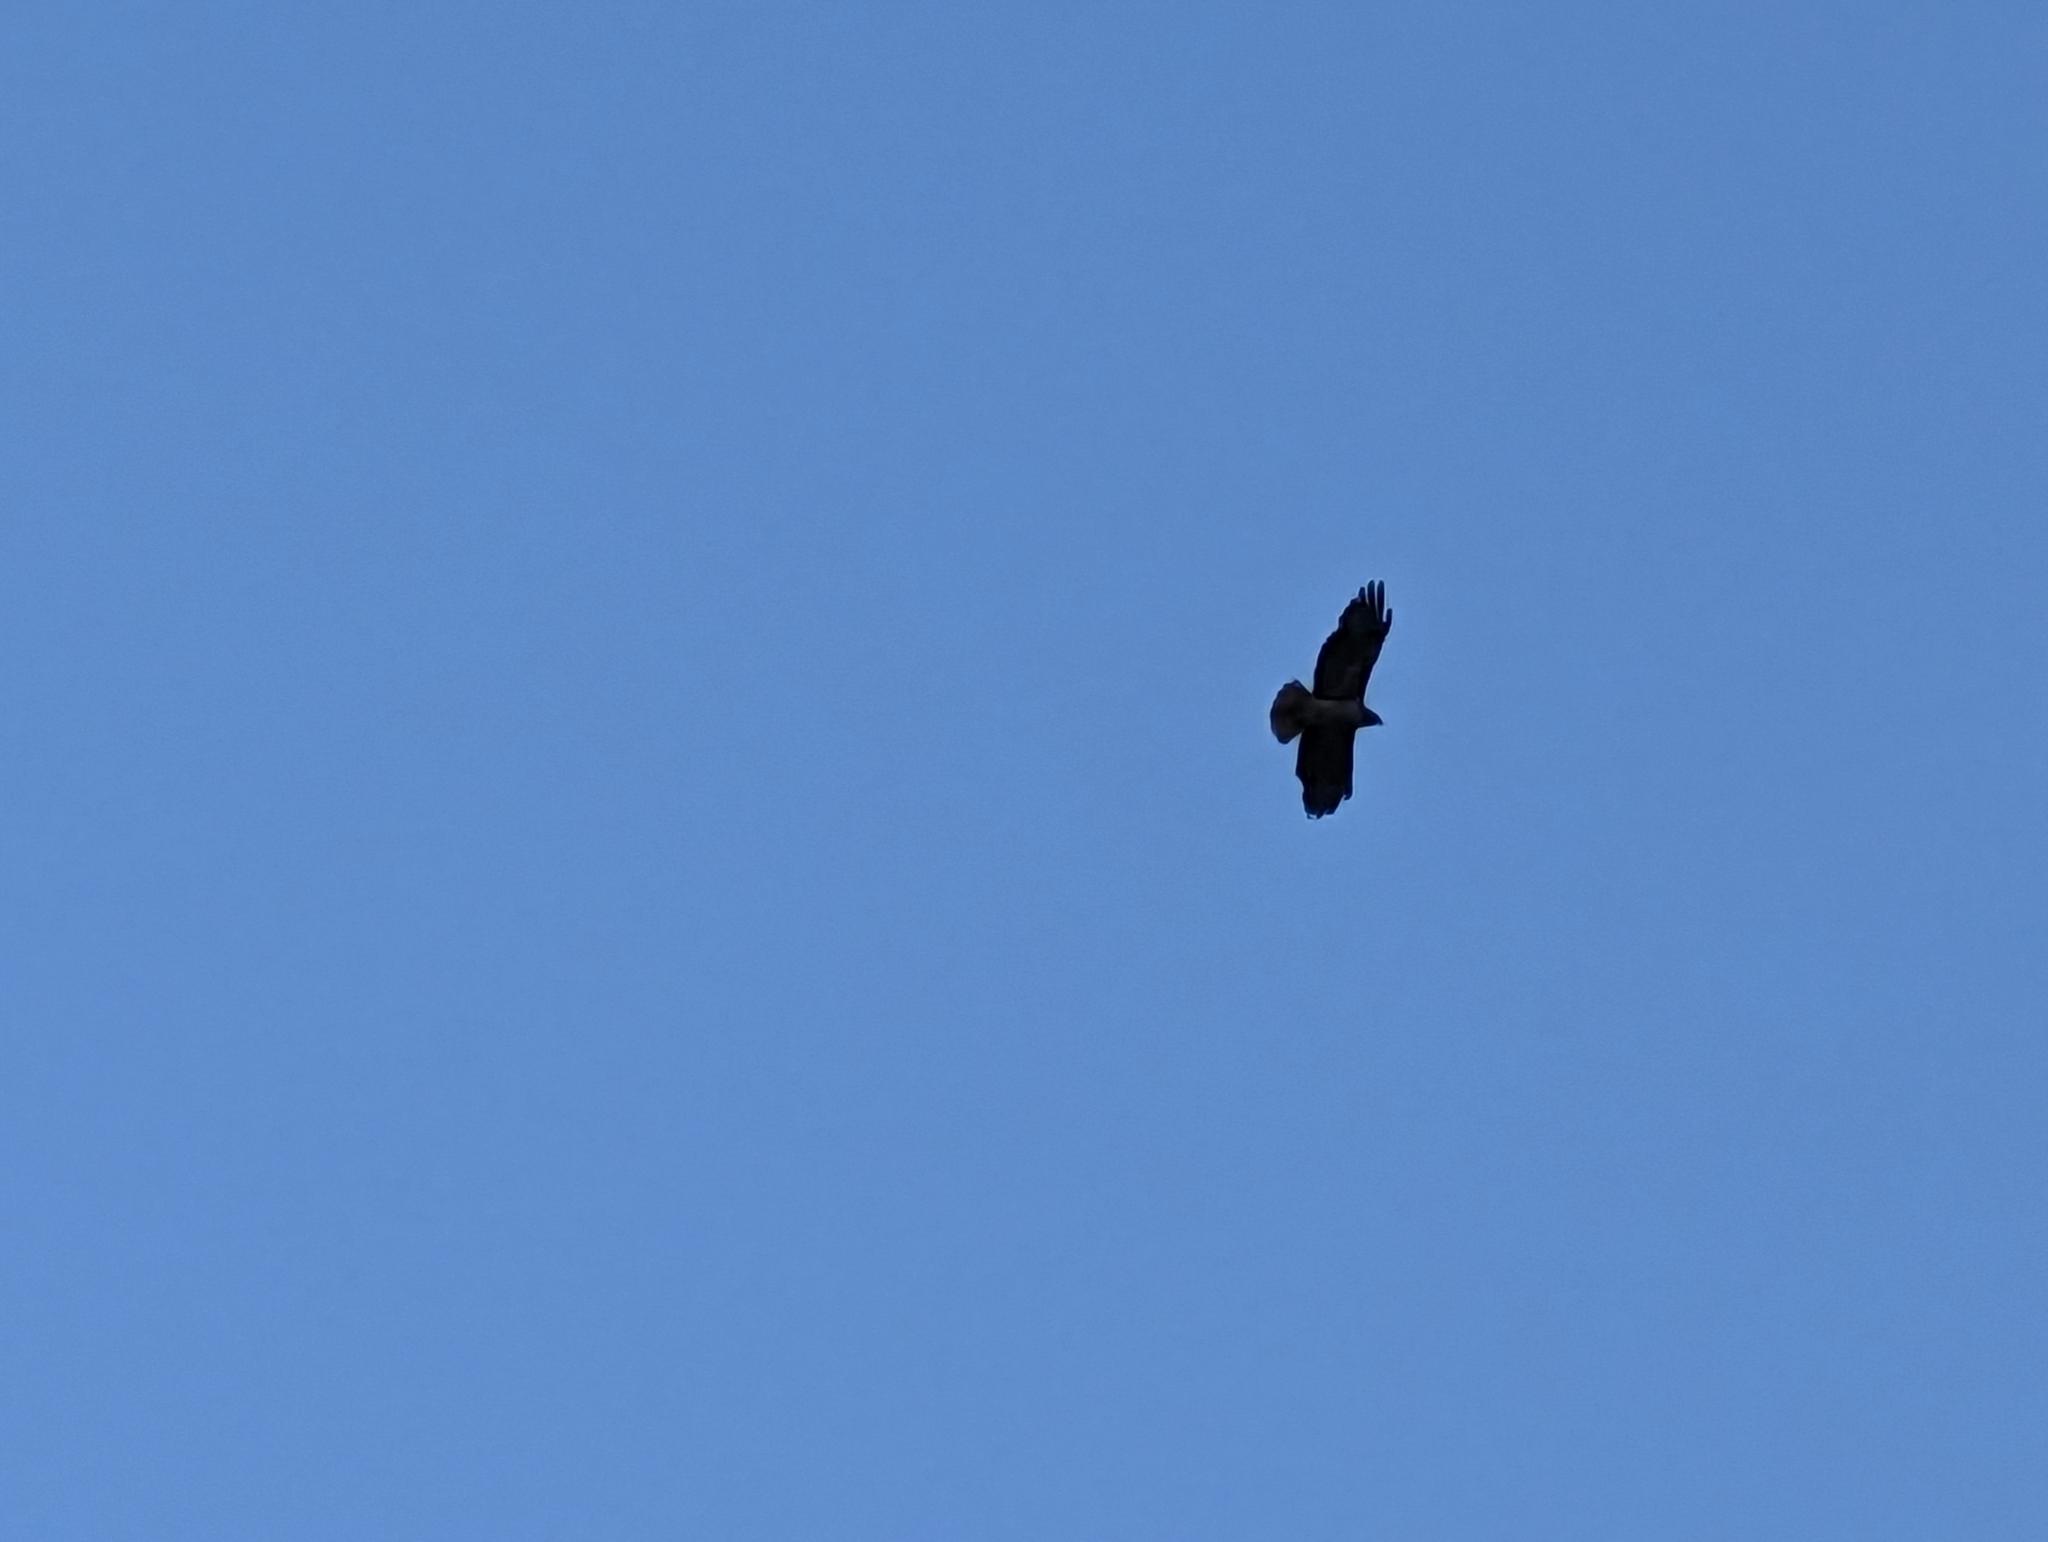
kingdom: Animalia
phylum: Chordata
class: Aves
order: Accipitriformes
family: Accipitridae
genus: Buteo
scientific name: Buteo jamaicensis
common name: Red-tailed hawk
